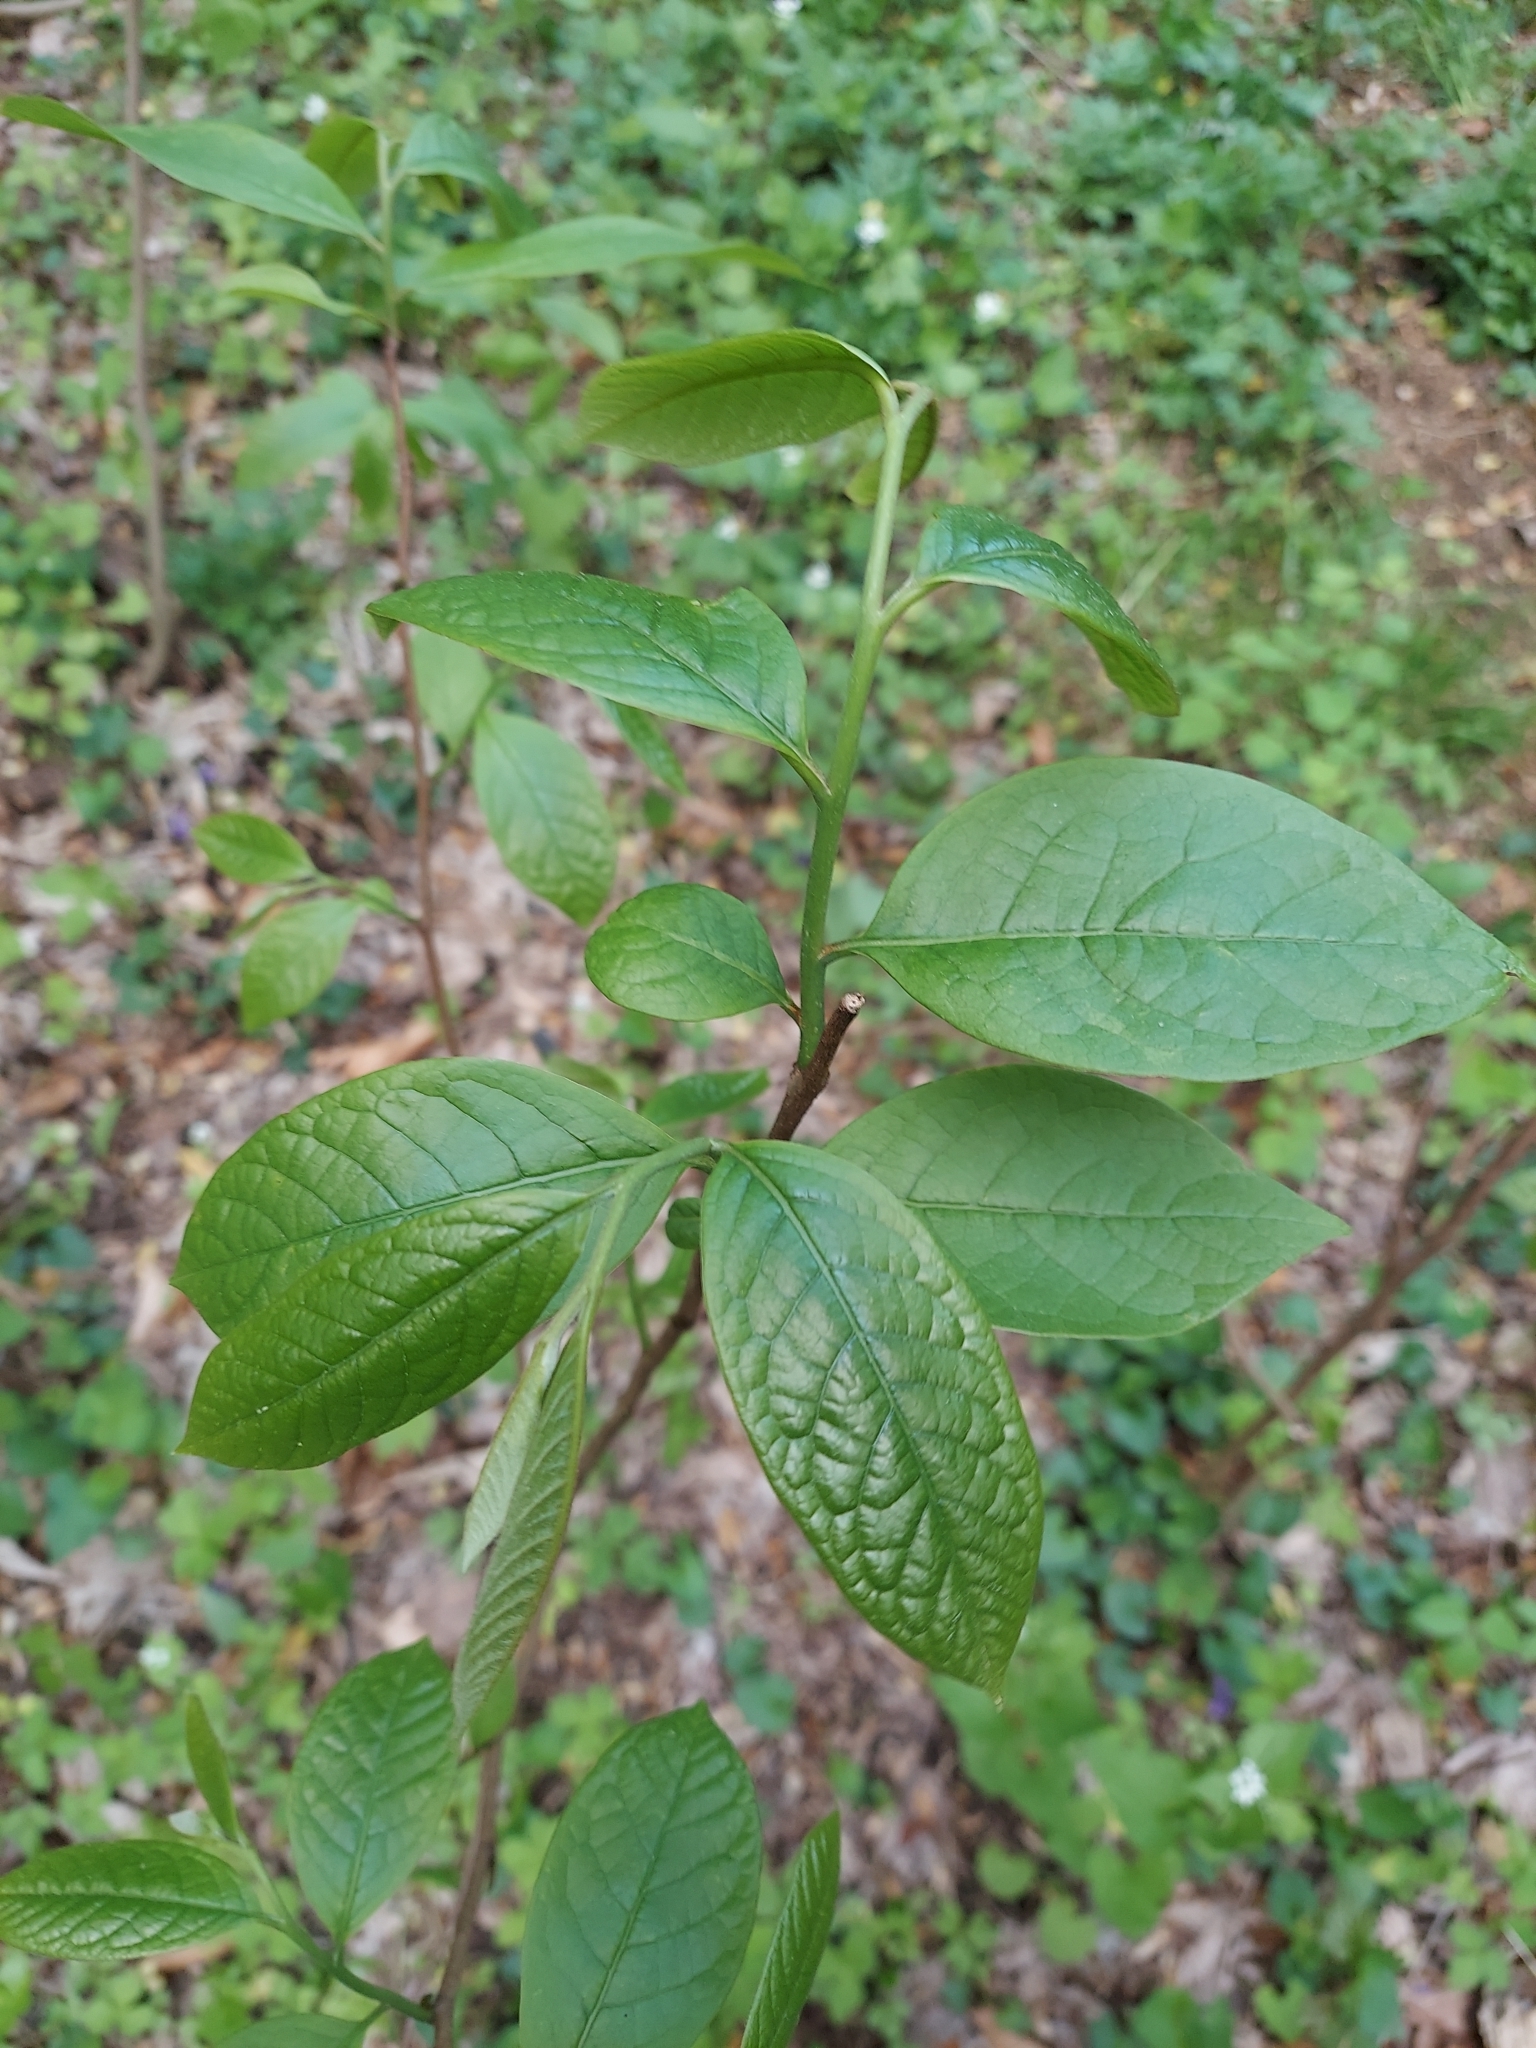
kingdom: Plantae
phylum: Tracheophyta
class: Magnoliopsida
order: Magnoliales
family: Annonaceae
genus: Asimina
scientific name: Asimina triloba
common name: Dog-banana
